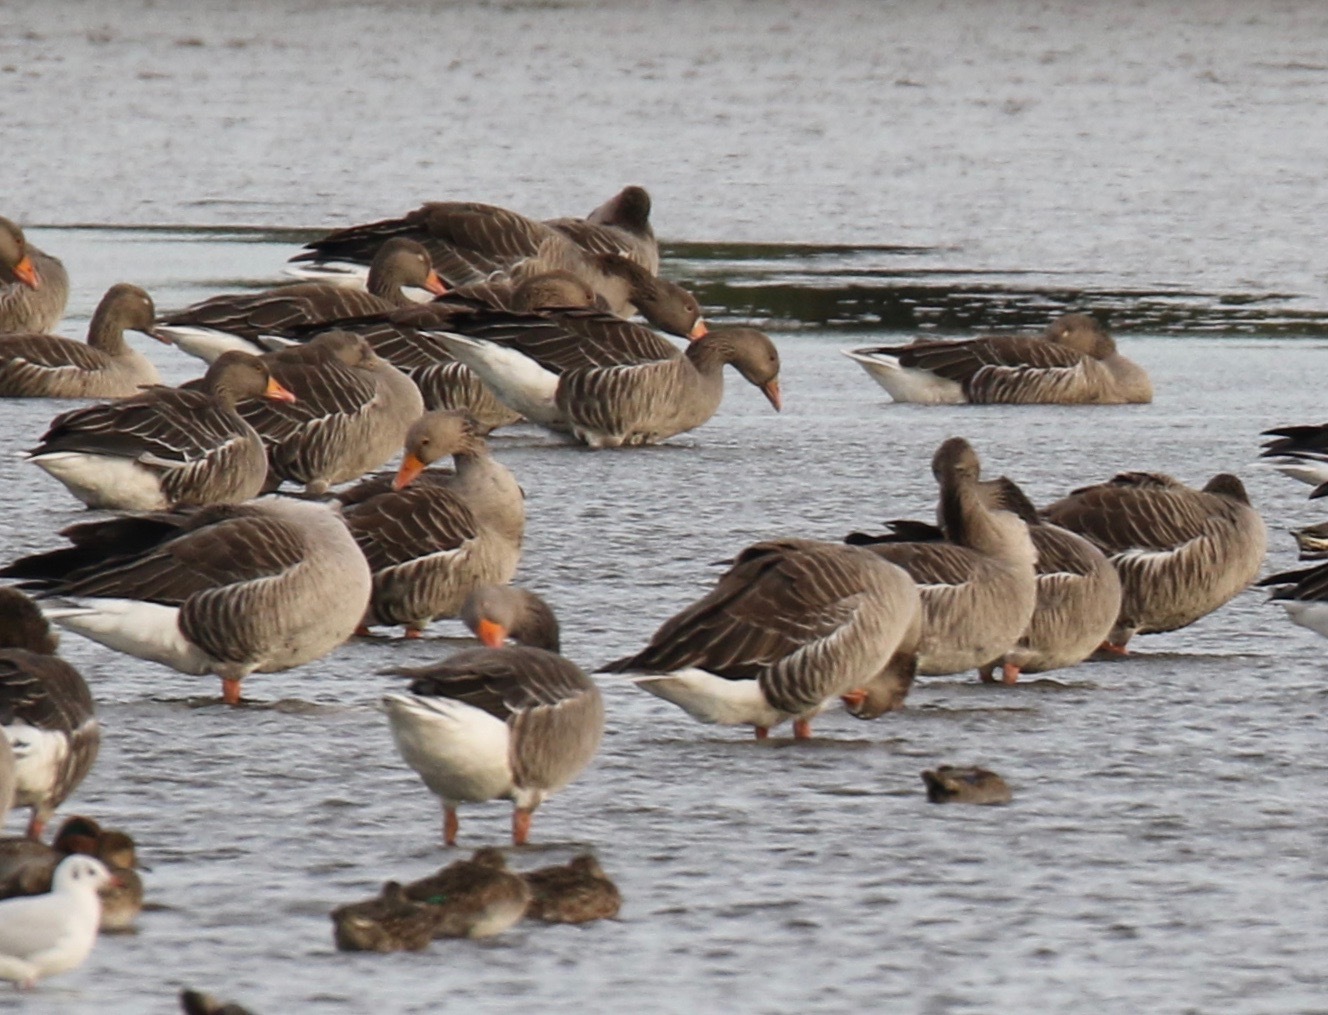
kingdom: Animalia
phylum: Chordata
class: Aves
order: Anseriformes
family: Anatidae
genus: Anser
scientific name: Anser anser
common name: Greylag goose
